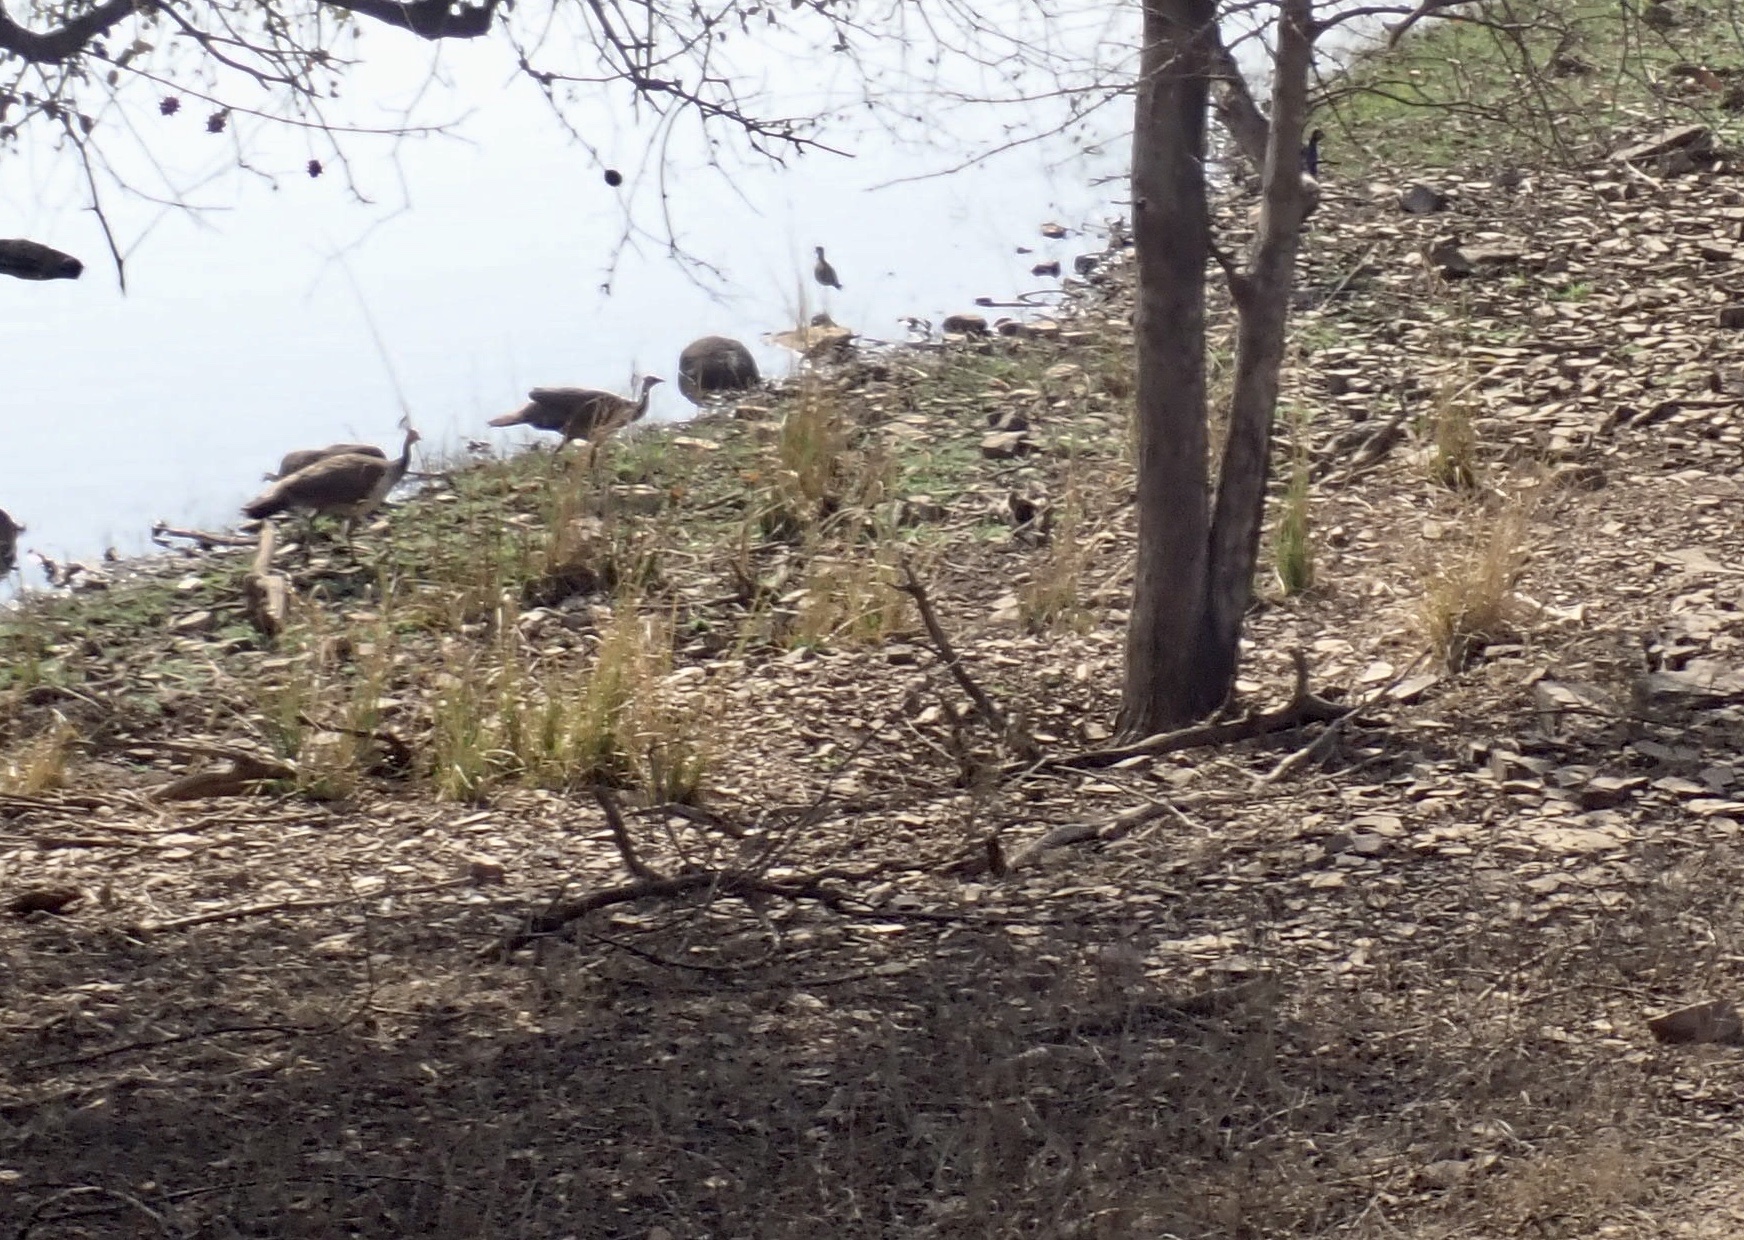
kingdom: Animalia
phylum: Chordata
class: Aves
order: Galliformes
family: Phasianidae
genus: Pavo
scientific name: Pavo cristatus
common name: Indian peafowl
